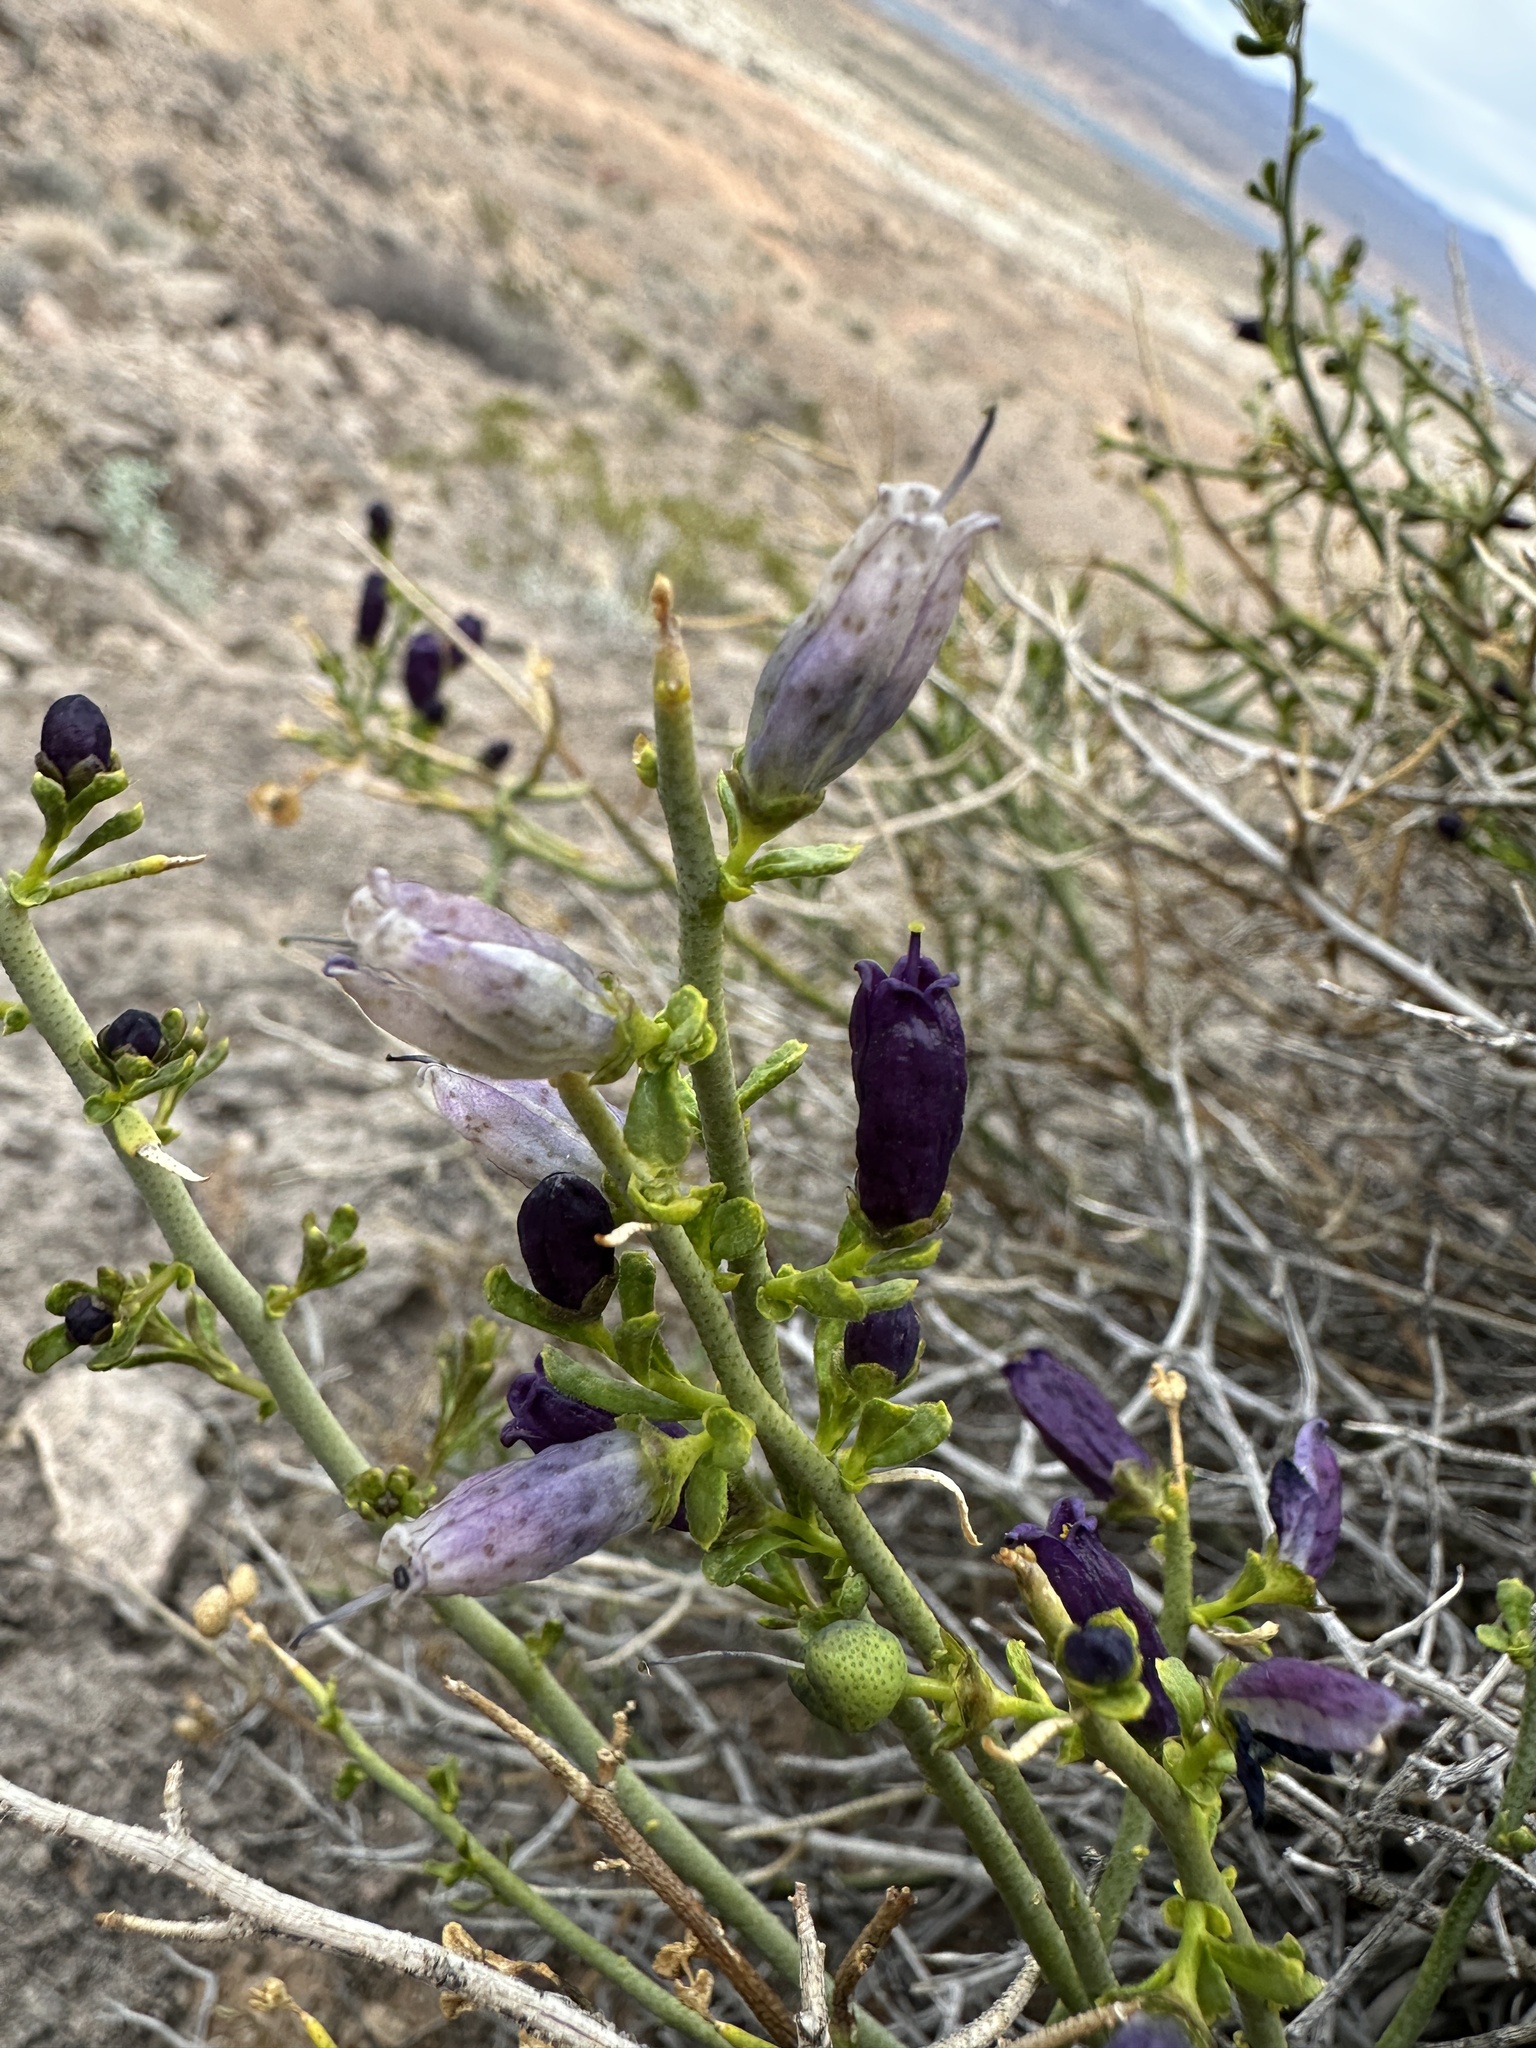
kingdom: Plantae
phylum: Tracheophyta
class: Magnoliopsida
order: Sapindales
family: Rutaceae
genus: Thamnosma
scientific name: Thamnosma montana
